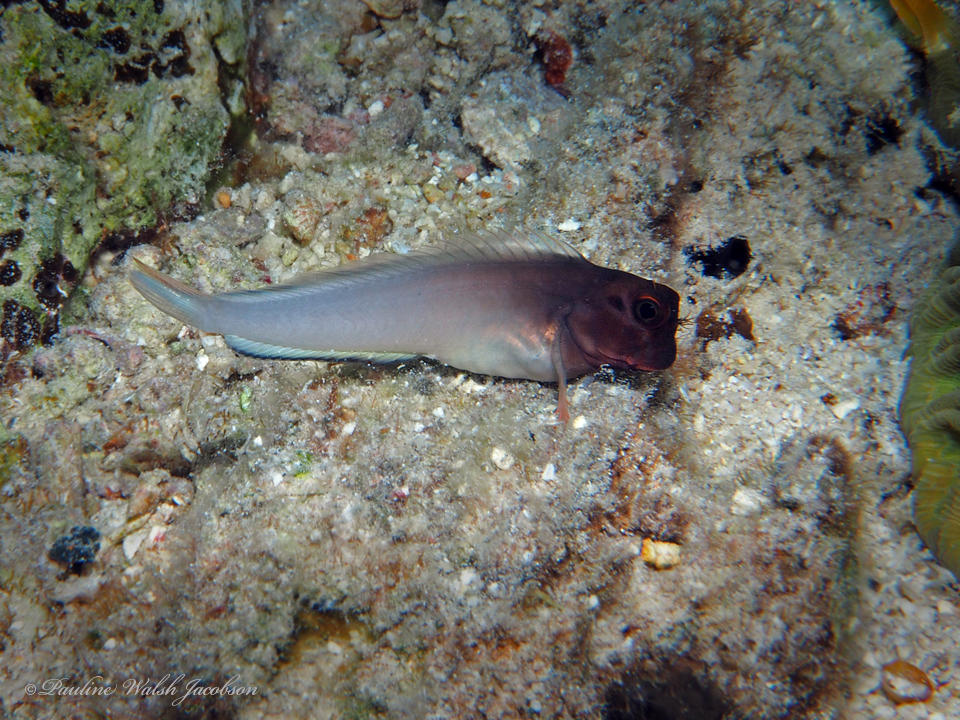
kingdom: Animalia
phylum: Chordata
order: Perciformes
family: Blenniidae
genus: Ophioblennius
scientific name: Ophioblennius macclurei
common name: Redlip blenny
